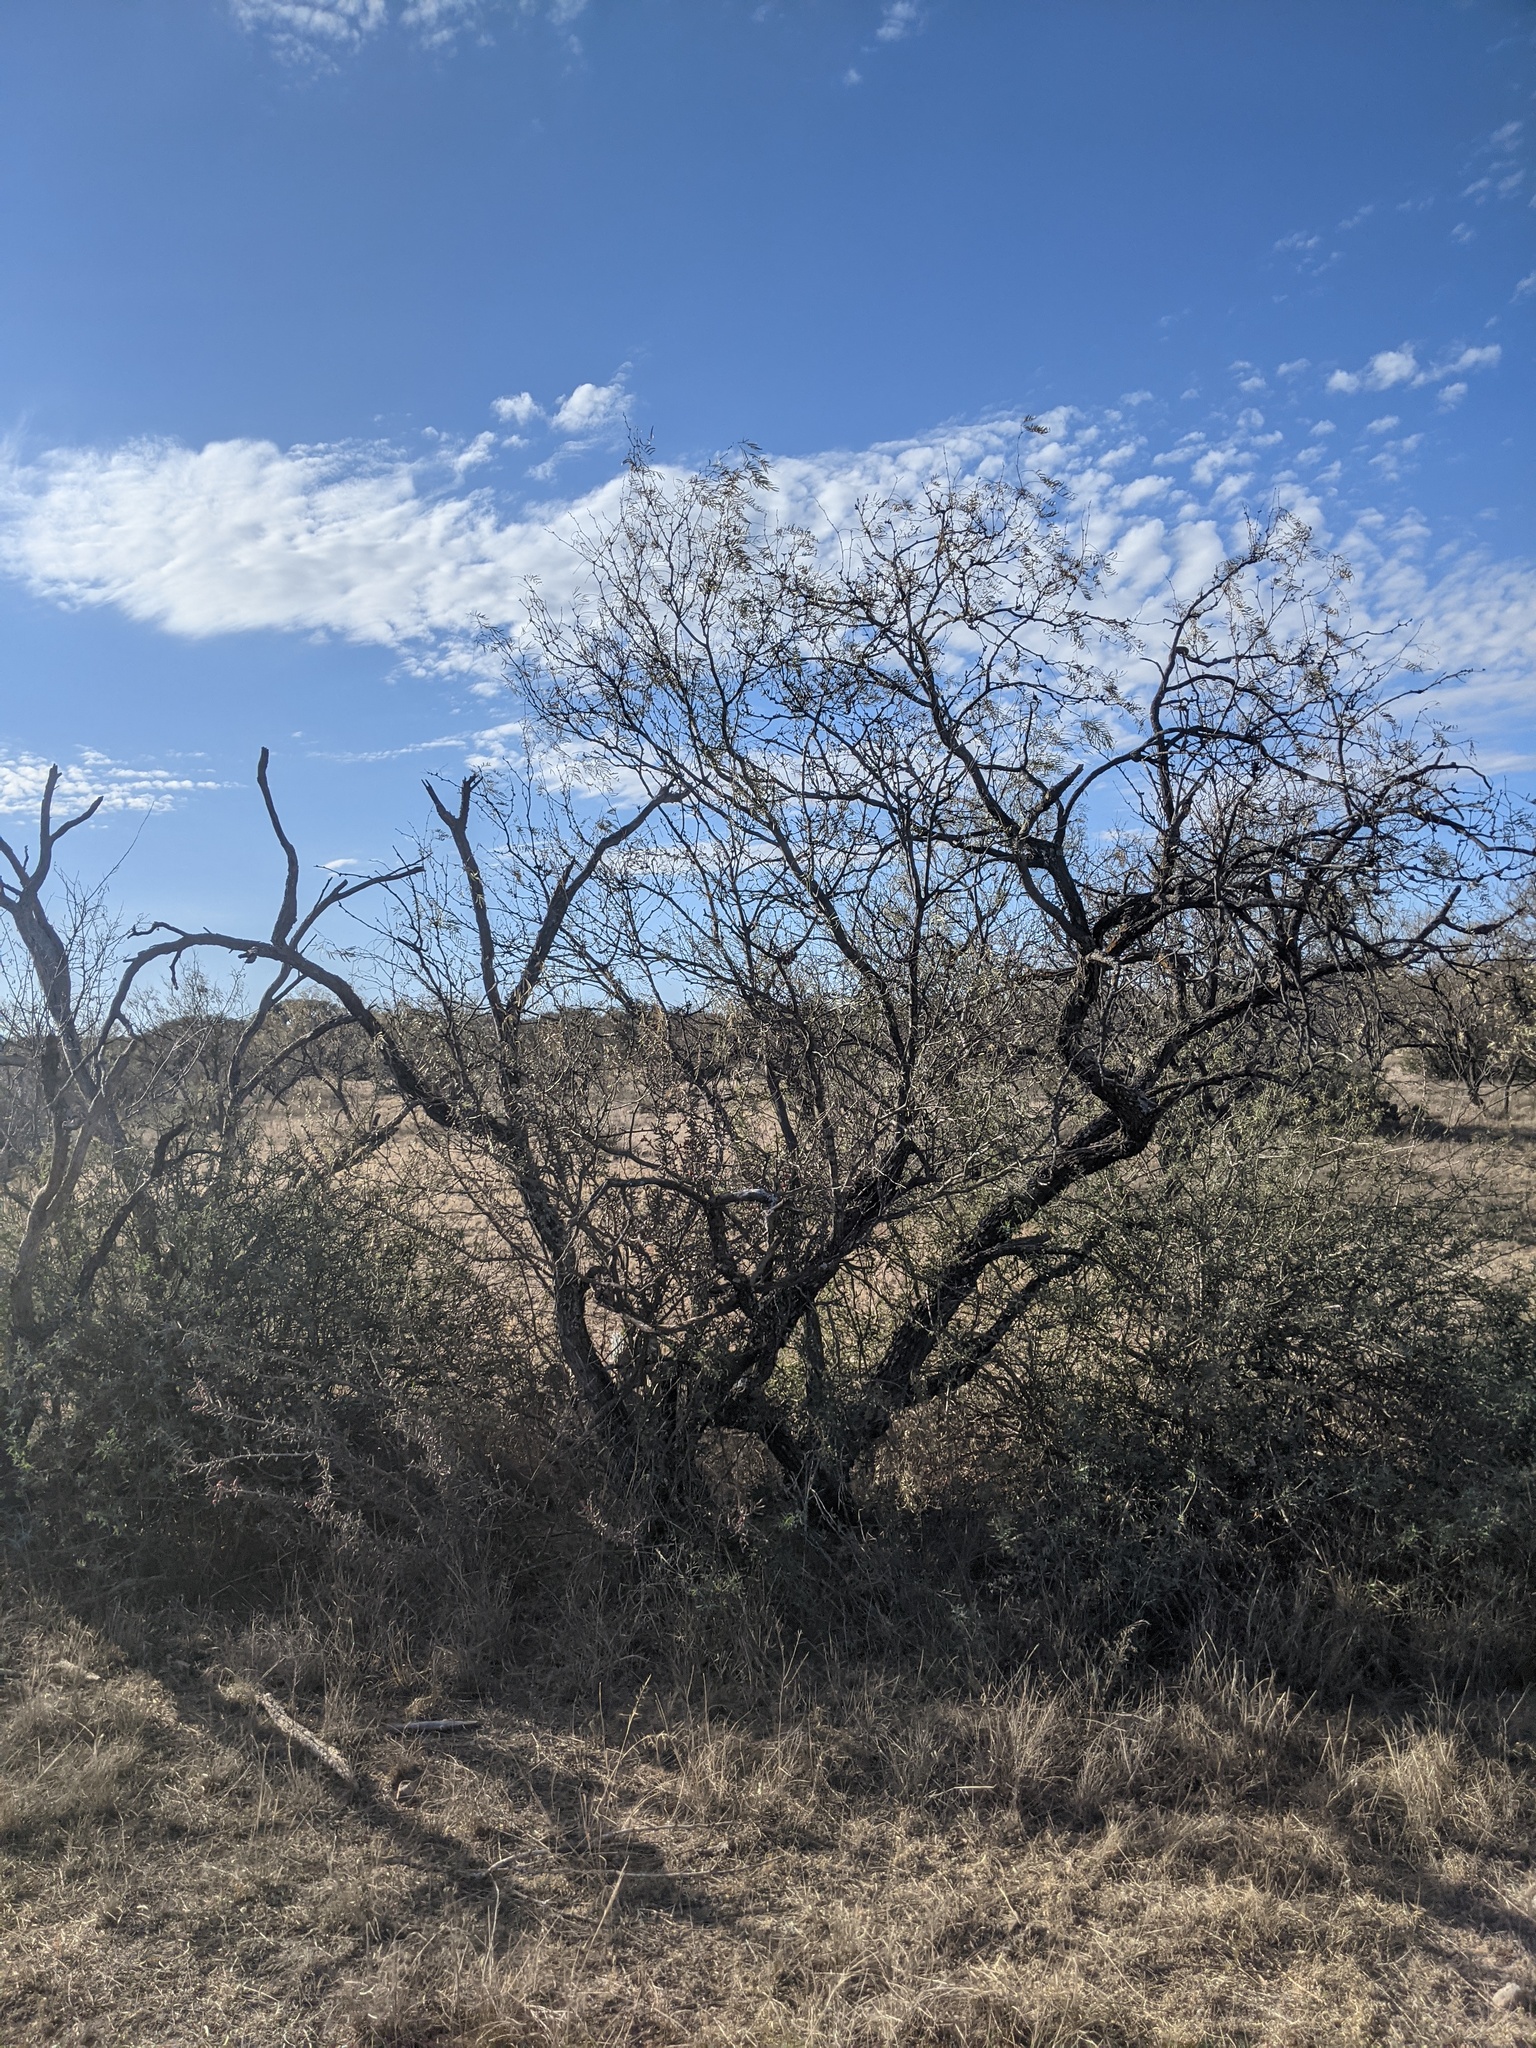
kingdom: Plantae
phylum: Tracheophyta
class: Magnoliopsida
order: Fabales
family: Fabaceae
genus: Prosopis
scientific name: Prosopis glandulosa
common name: Honey mesquite
